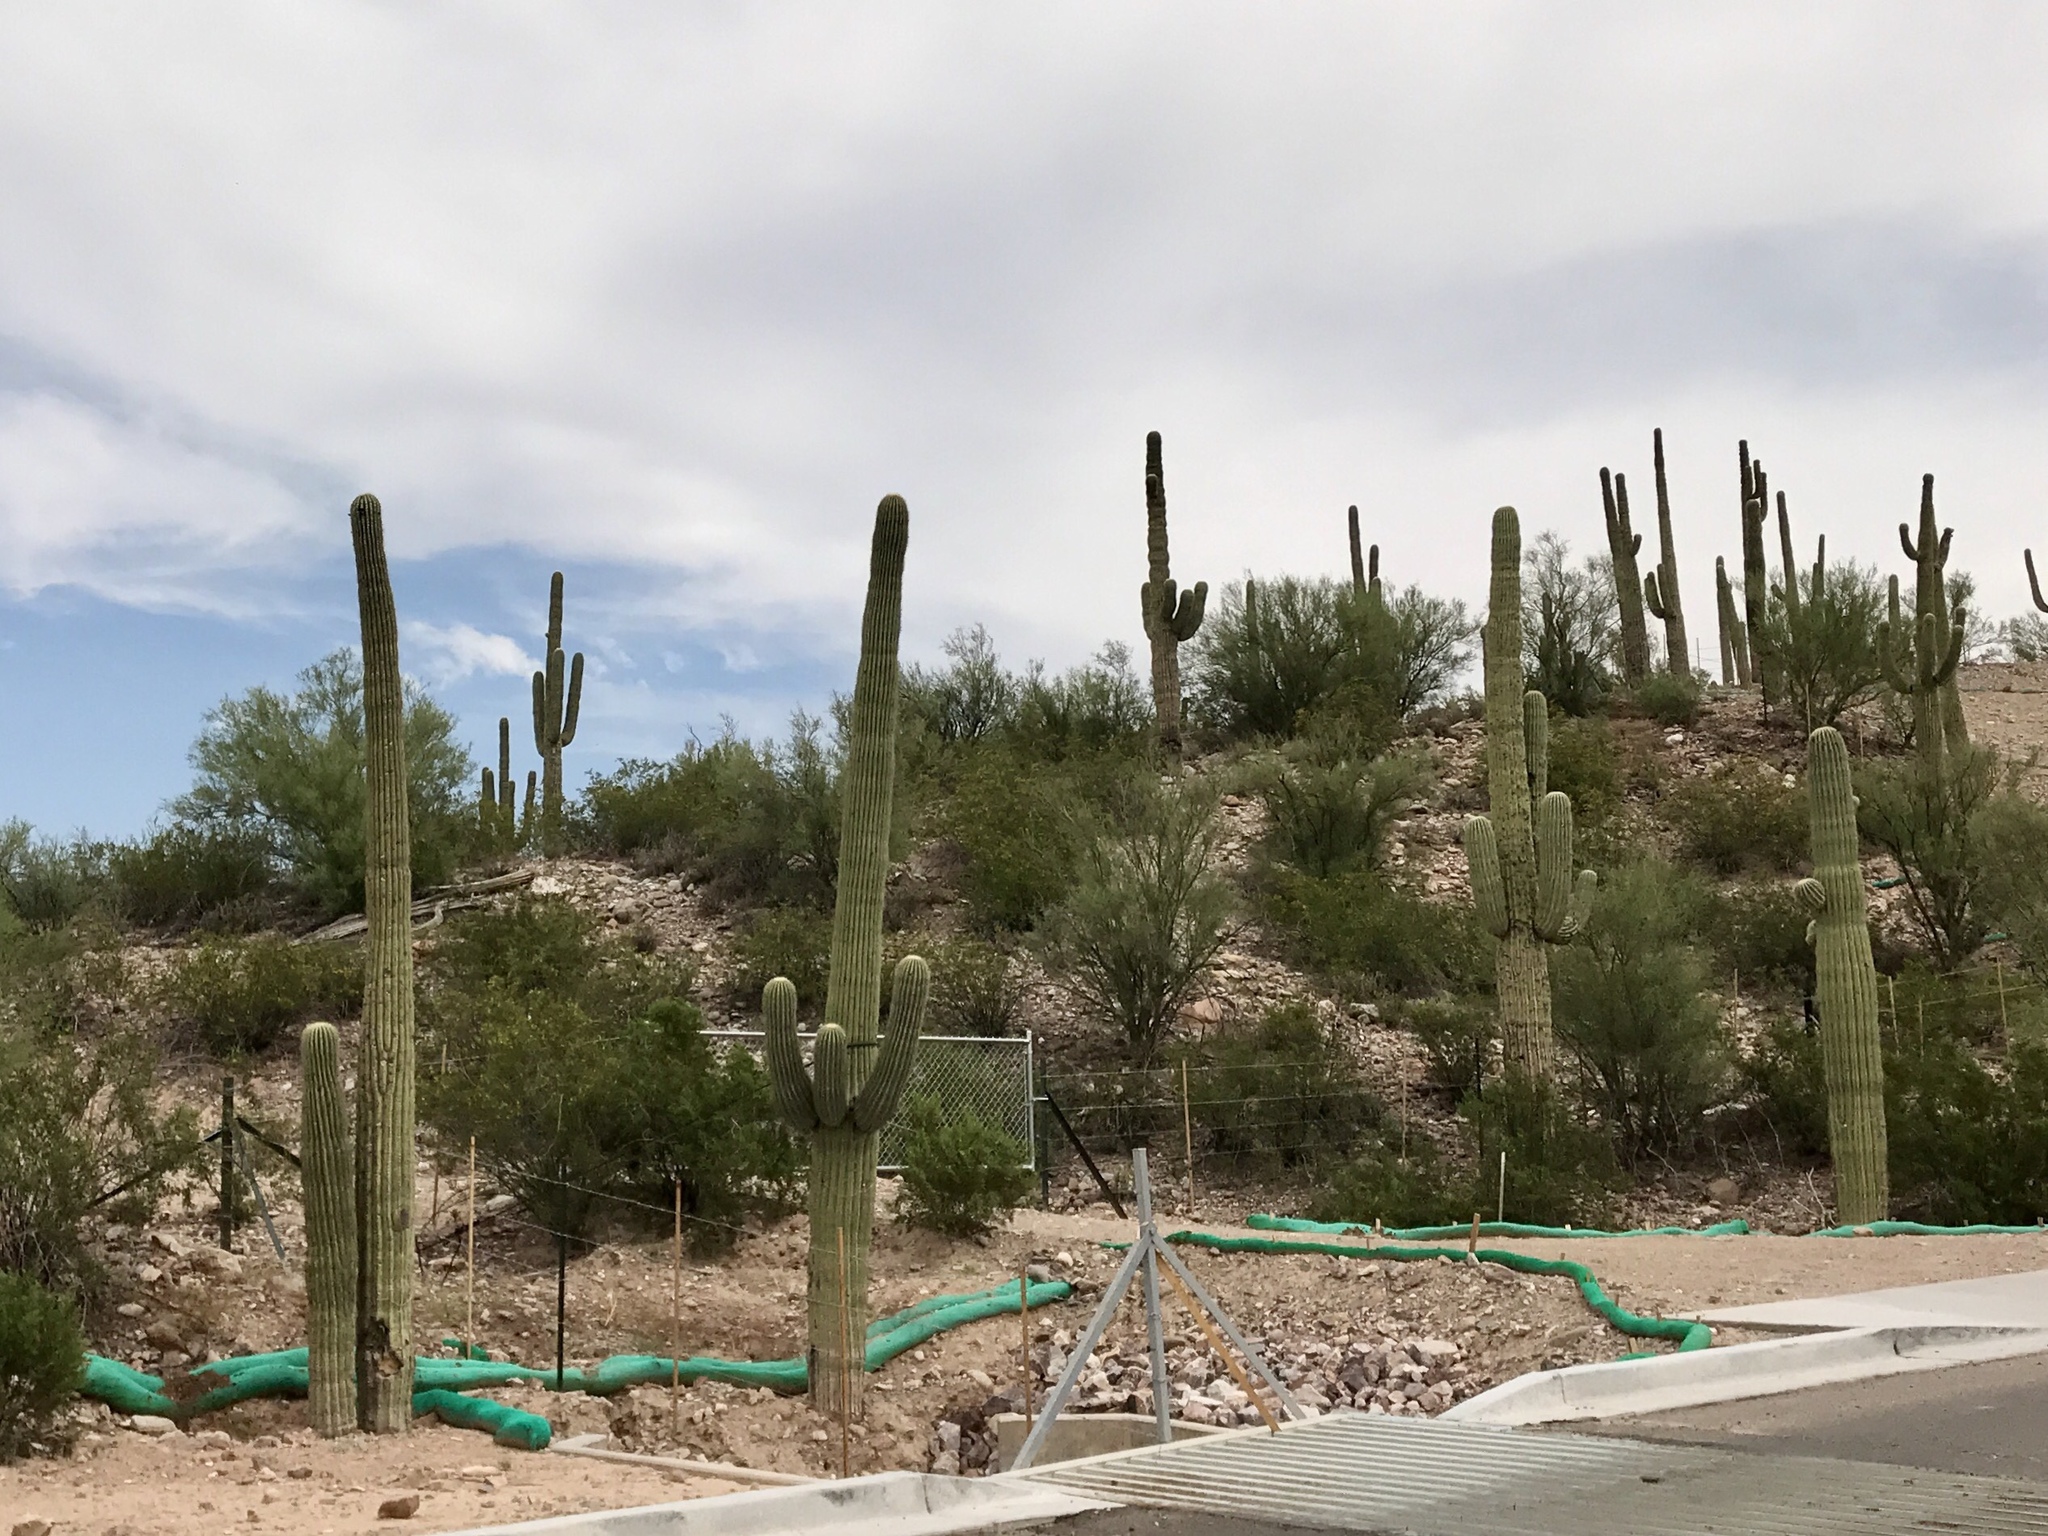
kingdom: Plantae
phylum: Tracheophyta
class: Magnoliopsida
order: Caryophyllales
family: Cactaceae
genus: Carnegiea
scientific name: Carnegiea gigantea
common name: Saguaro
